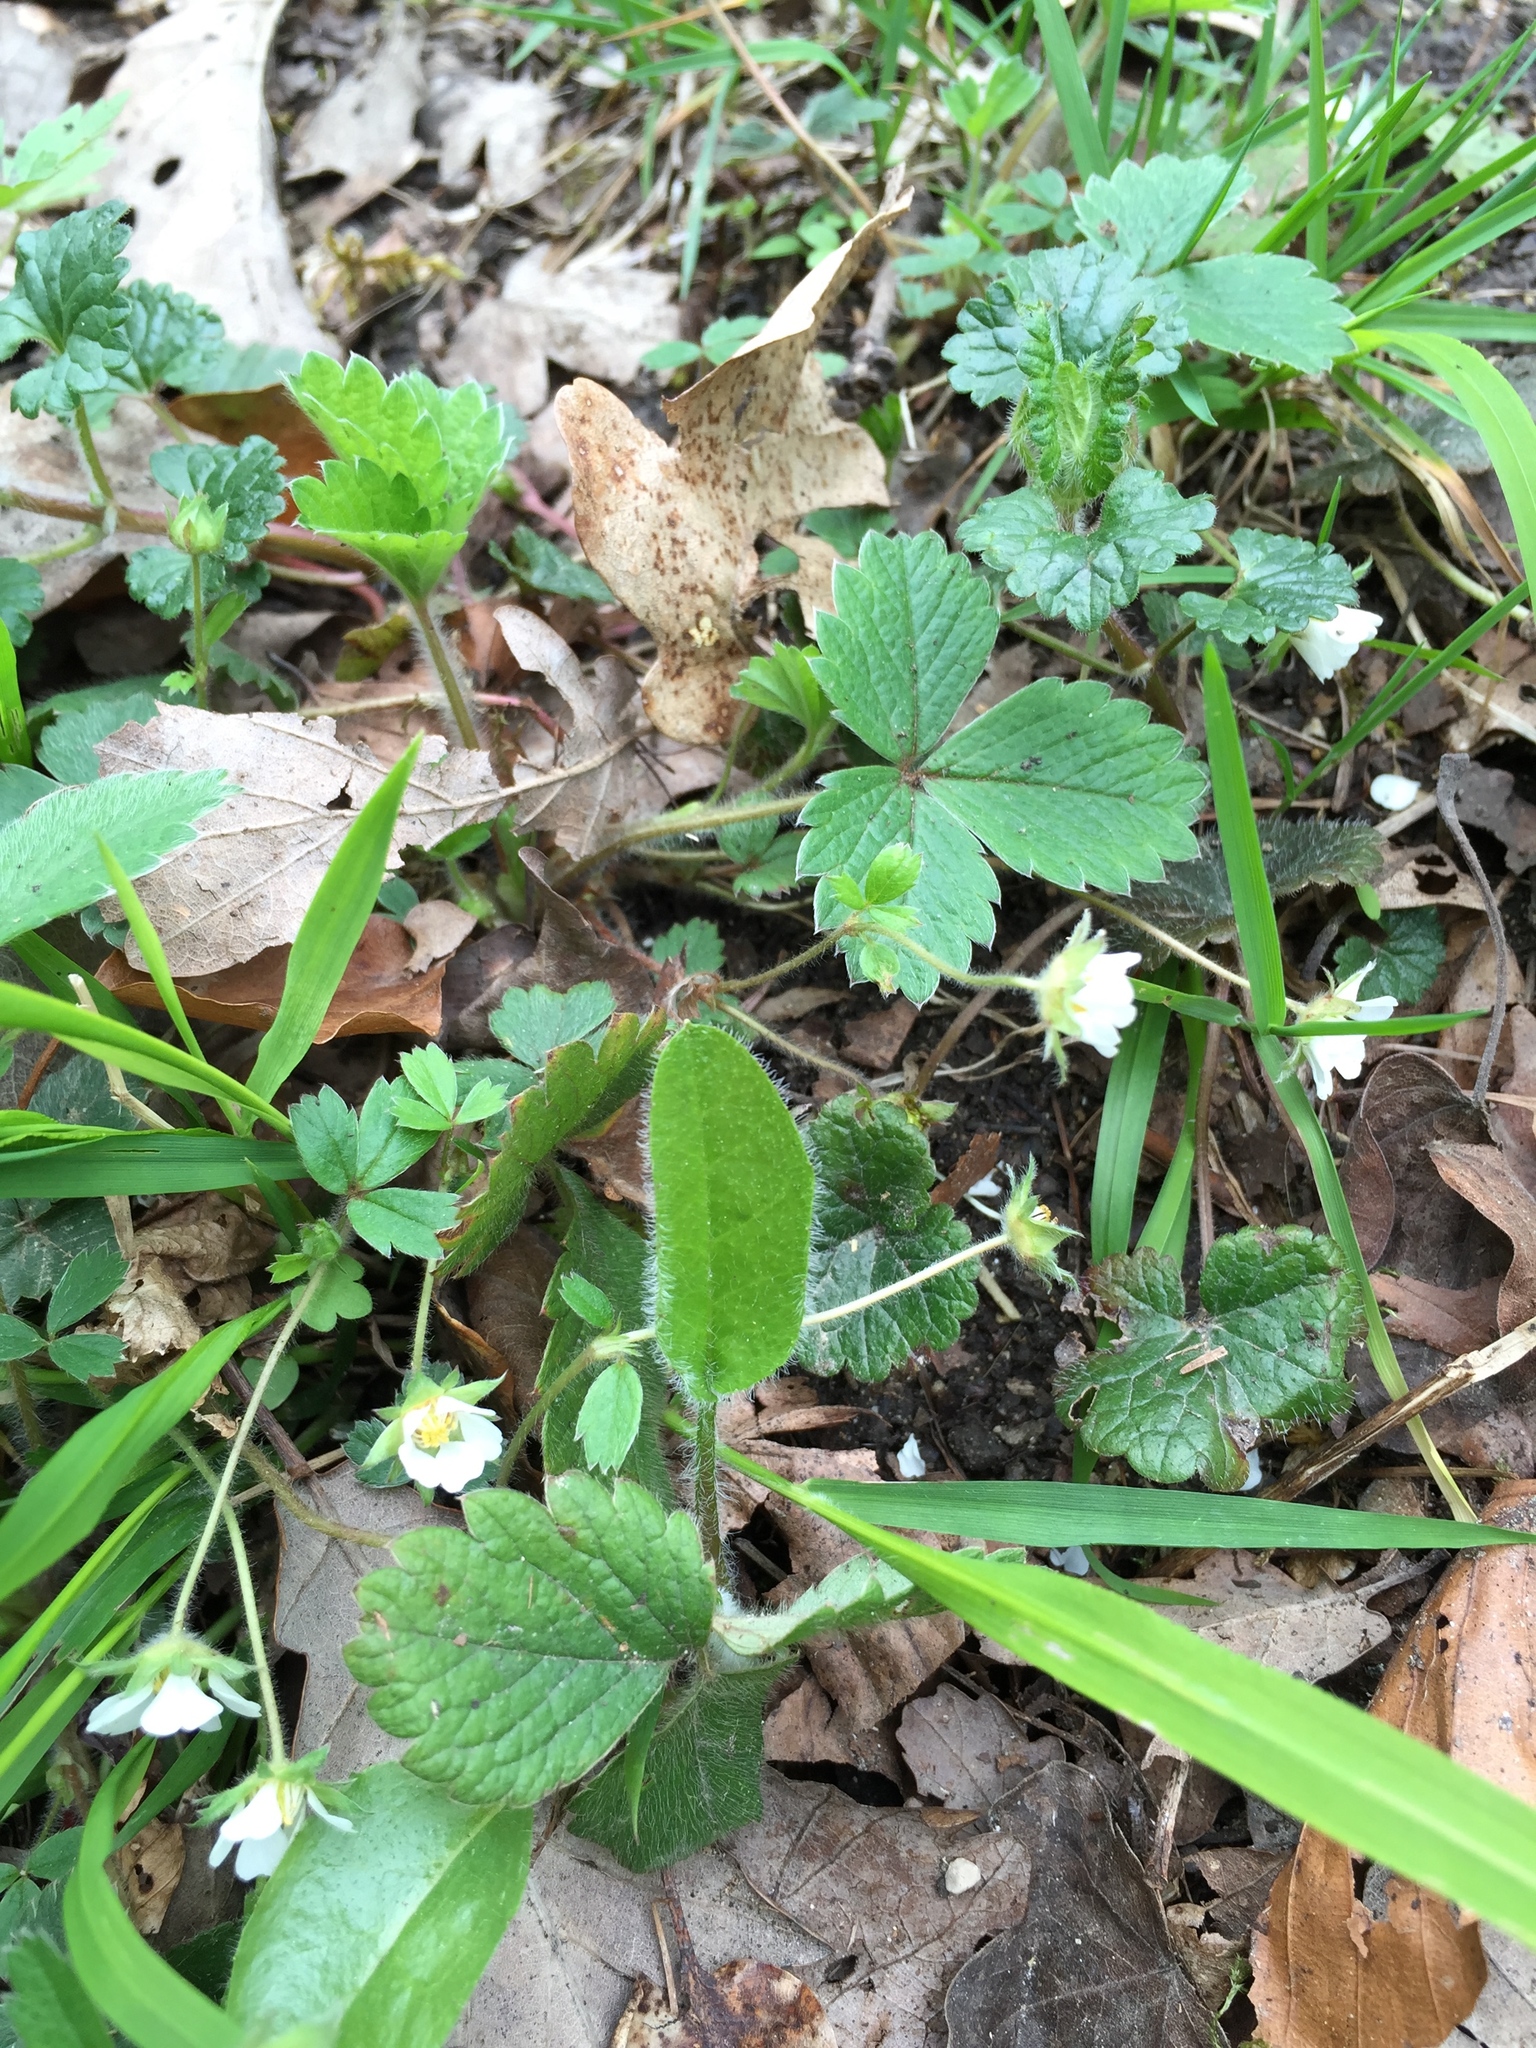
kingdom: Plantae
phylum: Tracheophyta
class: Magnoliopsida
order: Rosales
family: Rosaceae
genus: Potentilla
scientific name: Potentilla sterilis
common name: Barren strawberry
